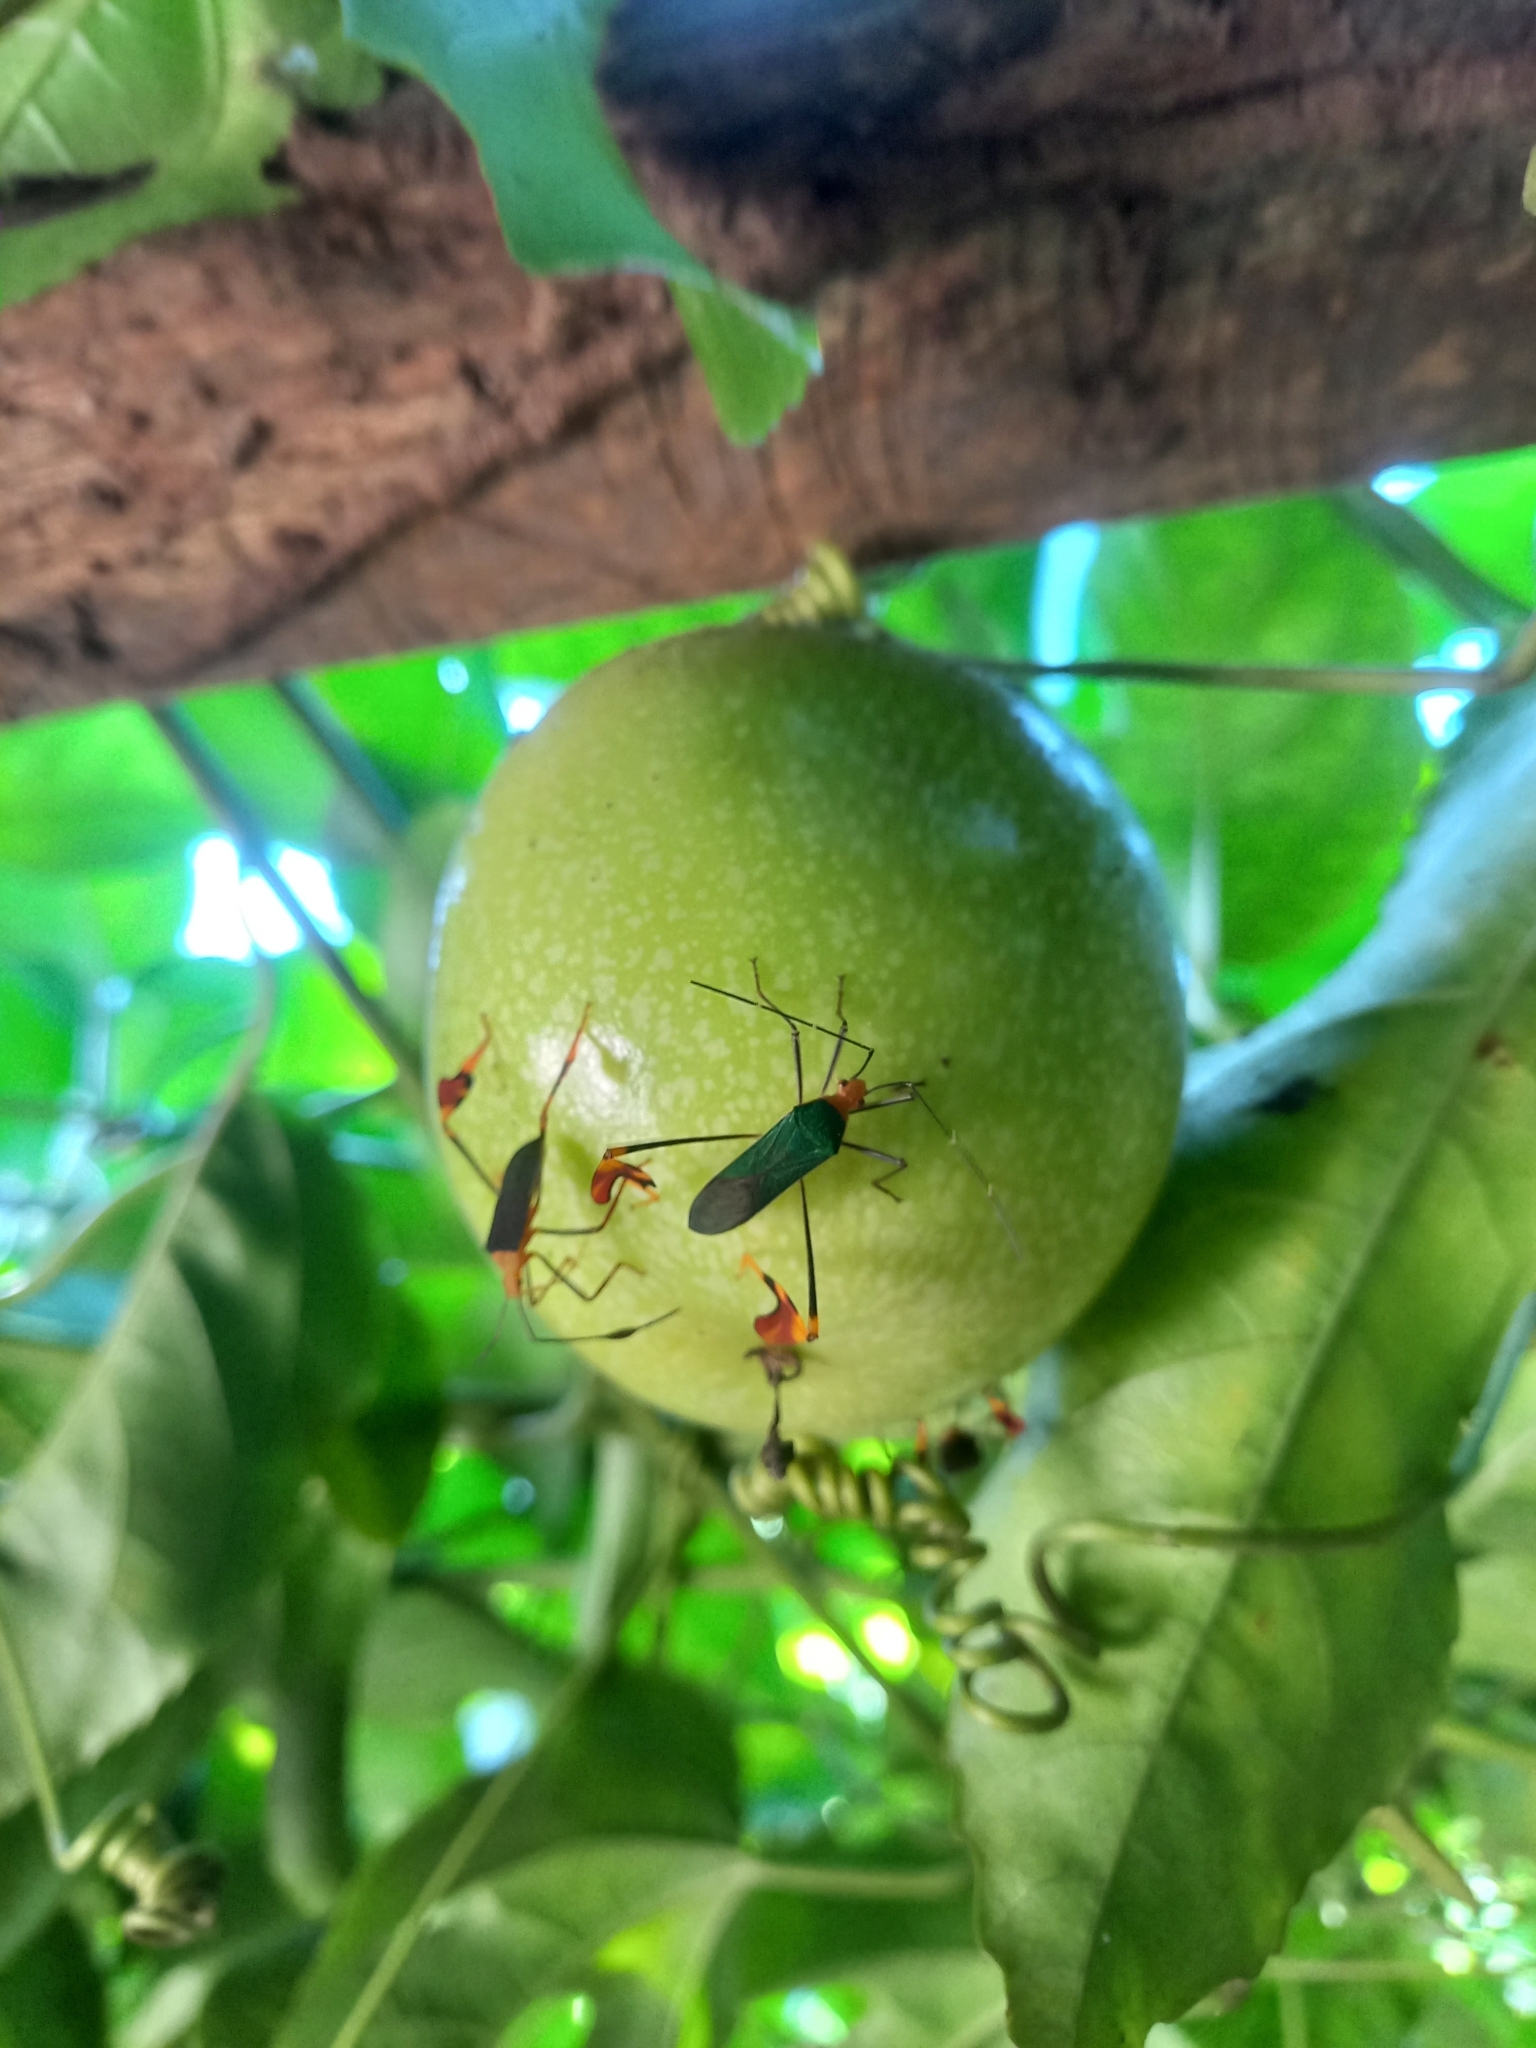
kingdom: Animalia
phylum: Arthropoda
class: Insecta
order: Hemiptera
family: Coreidae
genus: Anisoscelis
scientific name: Anisoscelis foliaceus
